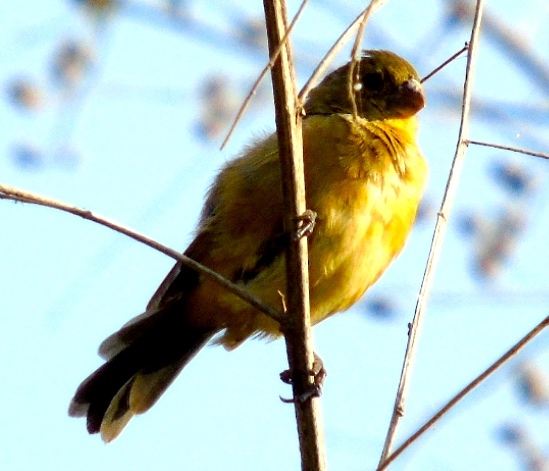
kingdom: Animalia
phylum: Chordata
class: Aves
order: Passeriformes
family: Thraupidae
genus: Sporophila
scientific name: Sporophila torqueola
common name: White-collared seedeater
